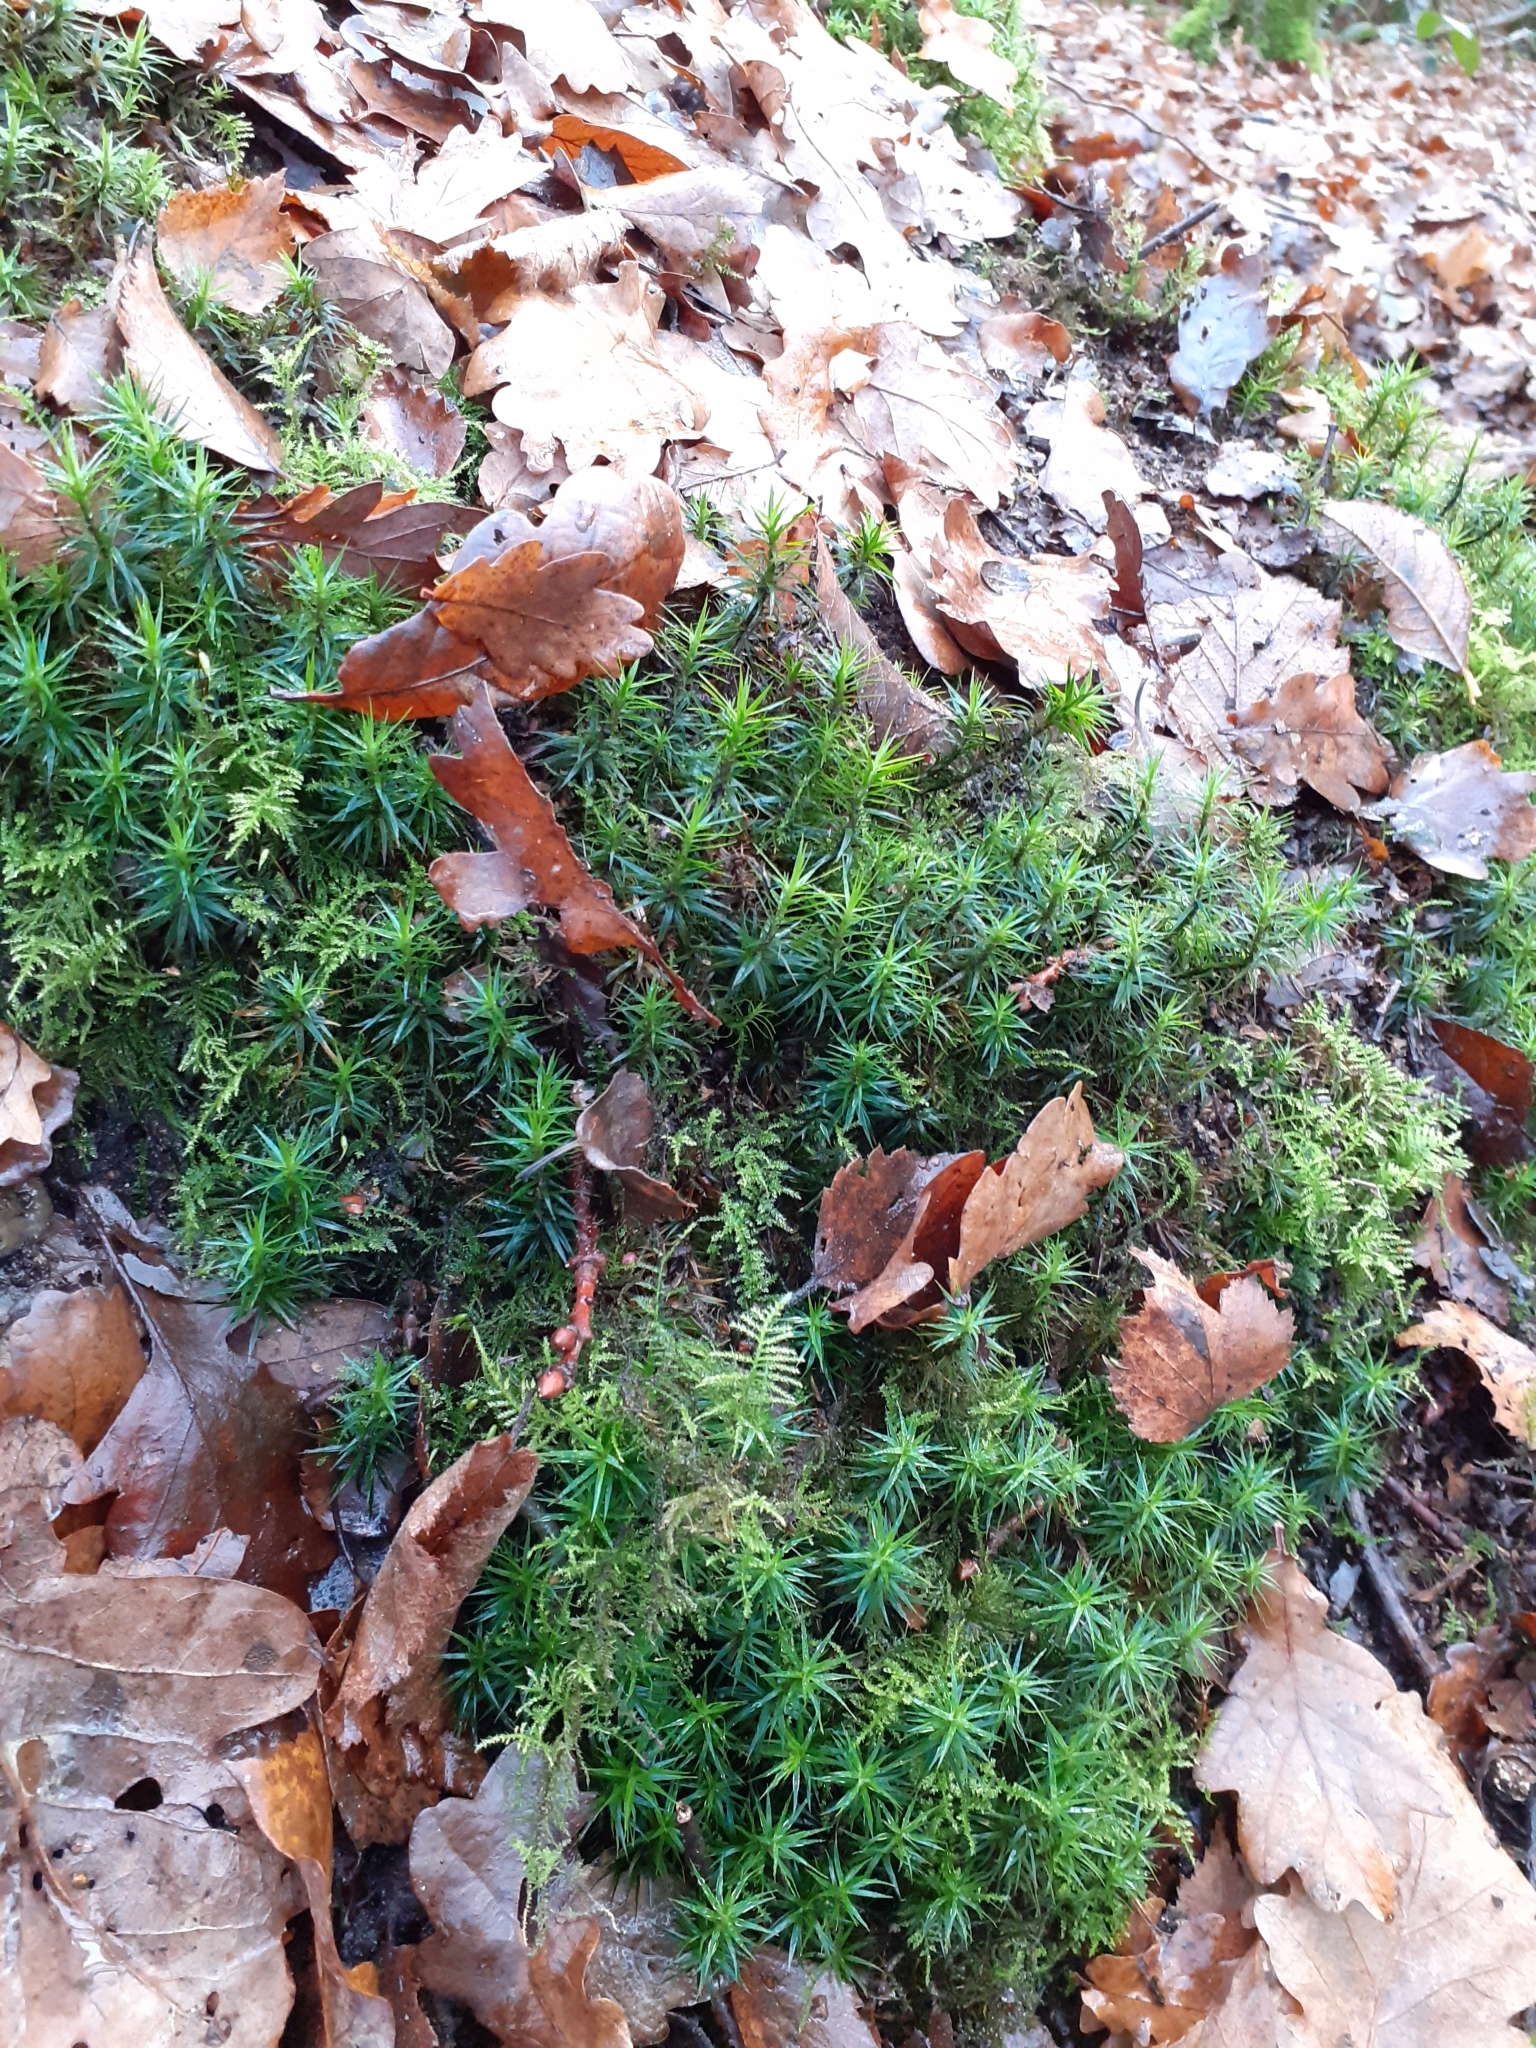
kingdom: Plantae
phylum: Bryophyta
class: Polytrichopsida
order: Polytrichales
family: Polytrichaceae
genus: Polytrichum
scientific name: Polytrichum formosum
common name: Bank haircap moss
